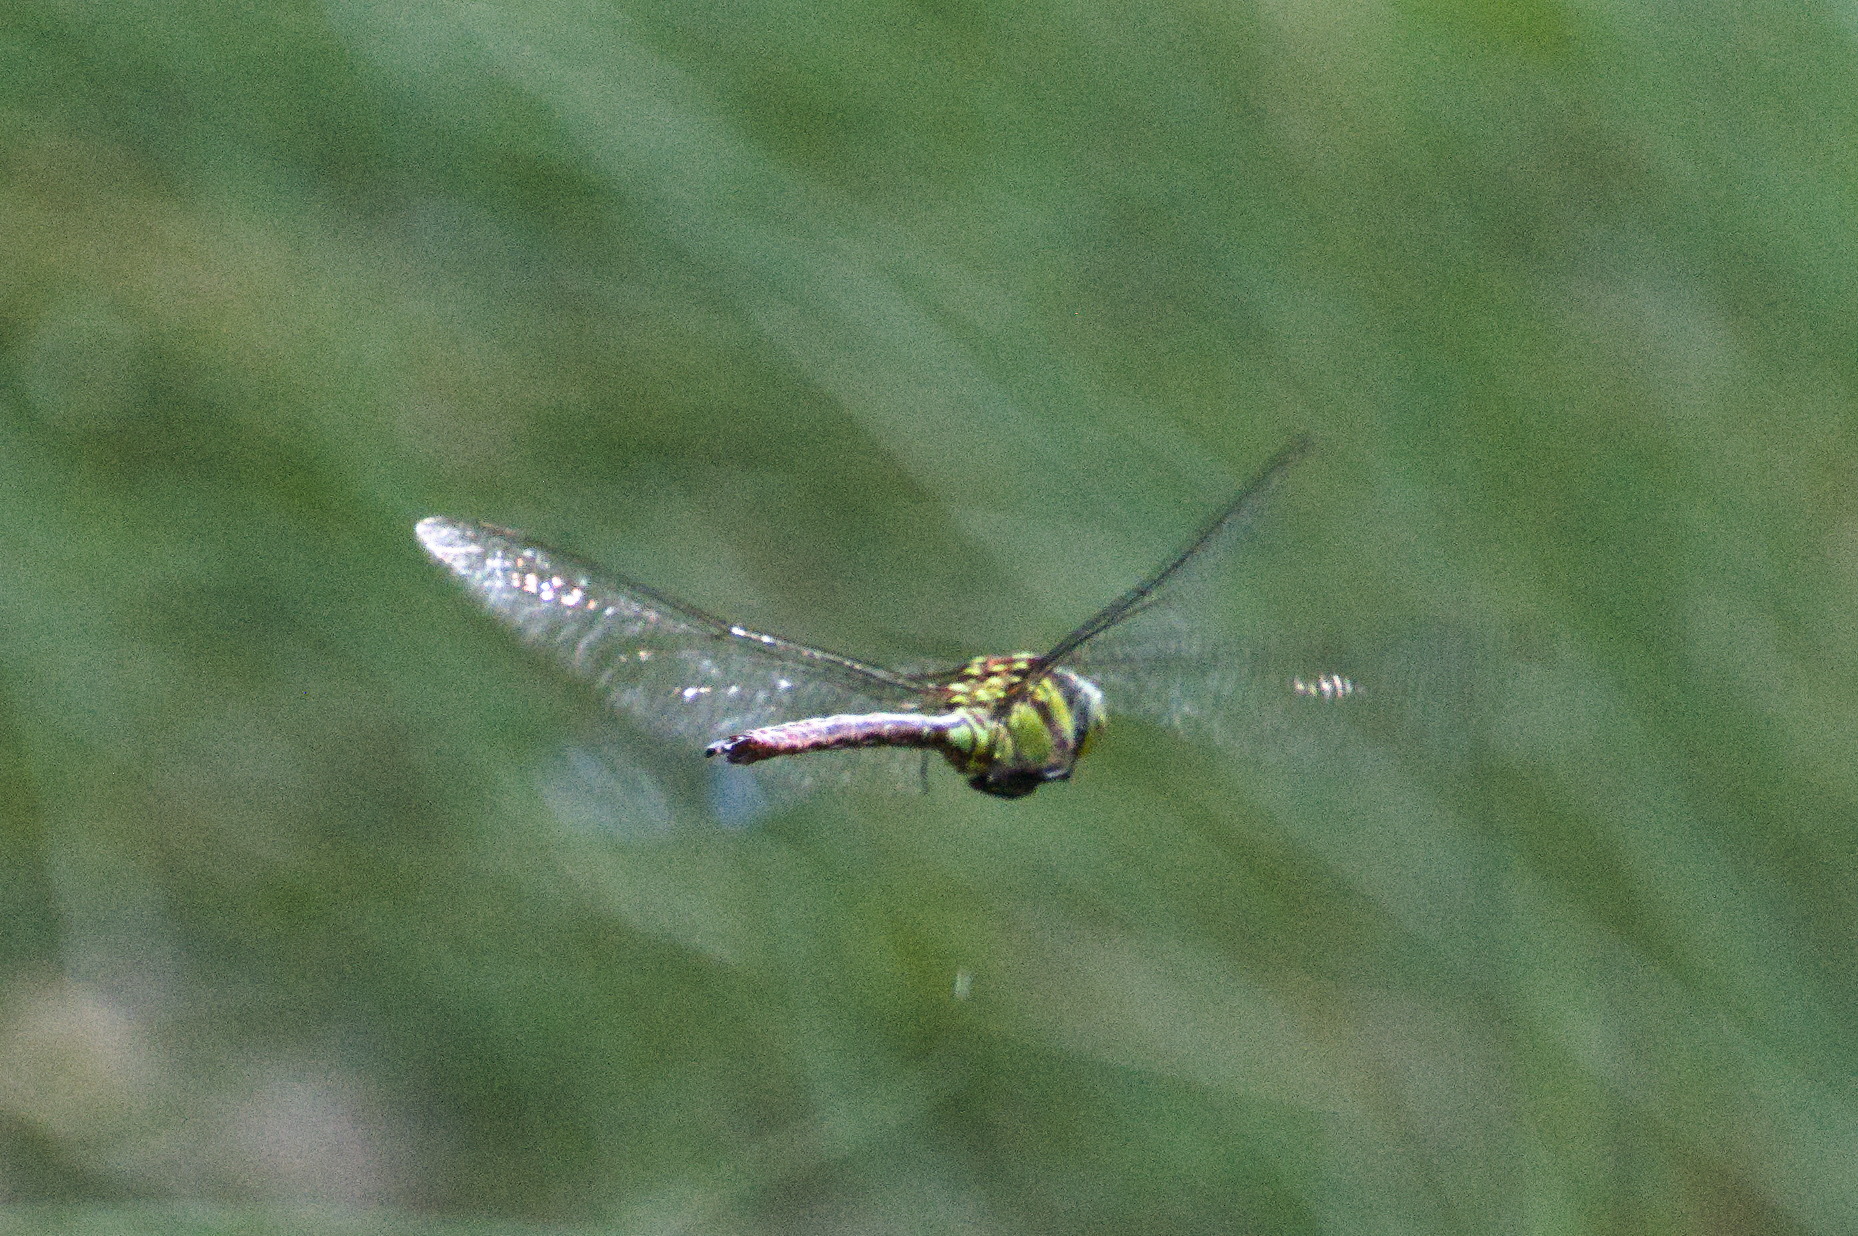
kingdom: Animalia
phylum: Arthropoda
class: Insecta
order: Odonata
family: Aeshnidae
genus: Remartinia
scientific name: Remartinia luteipennis
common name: Malachite darner
